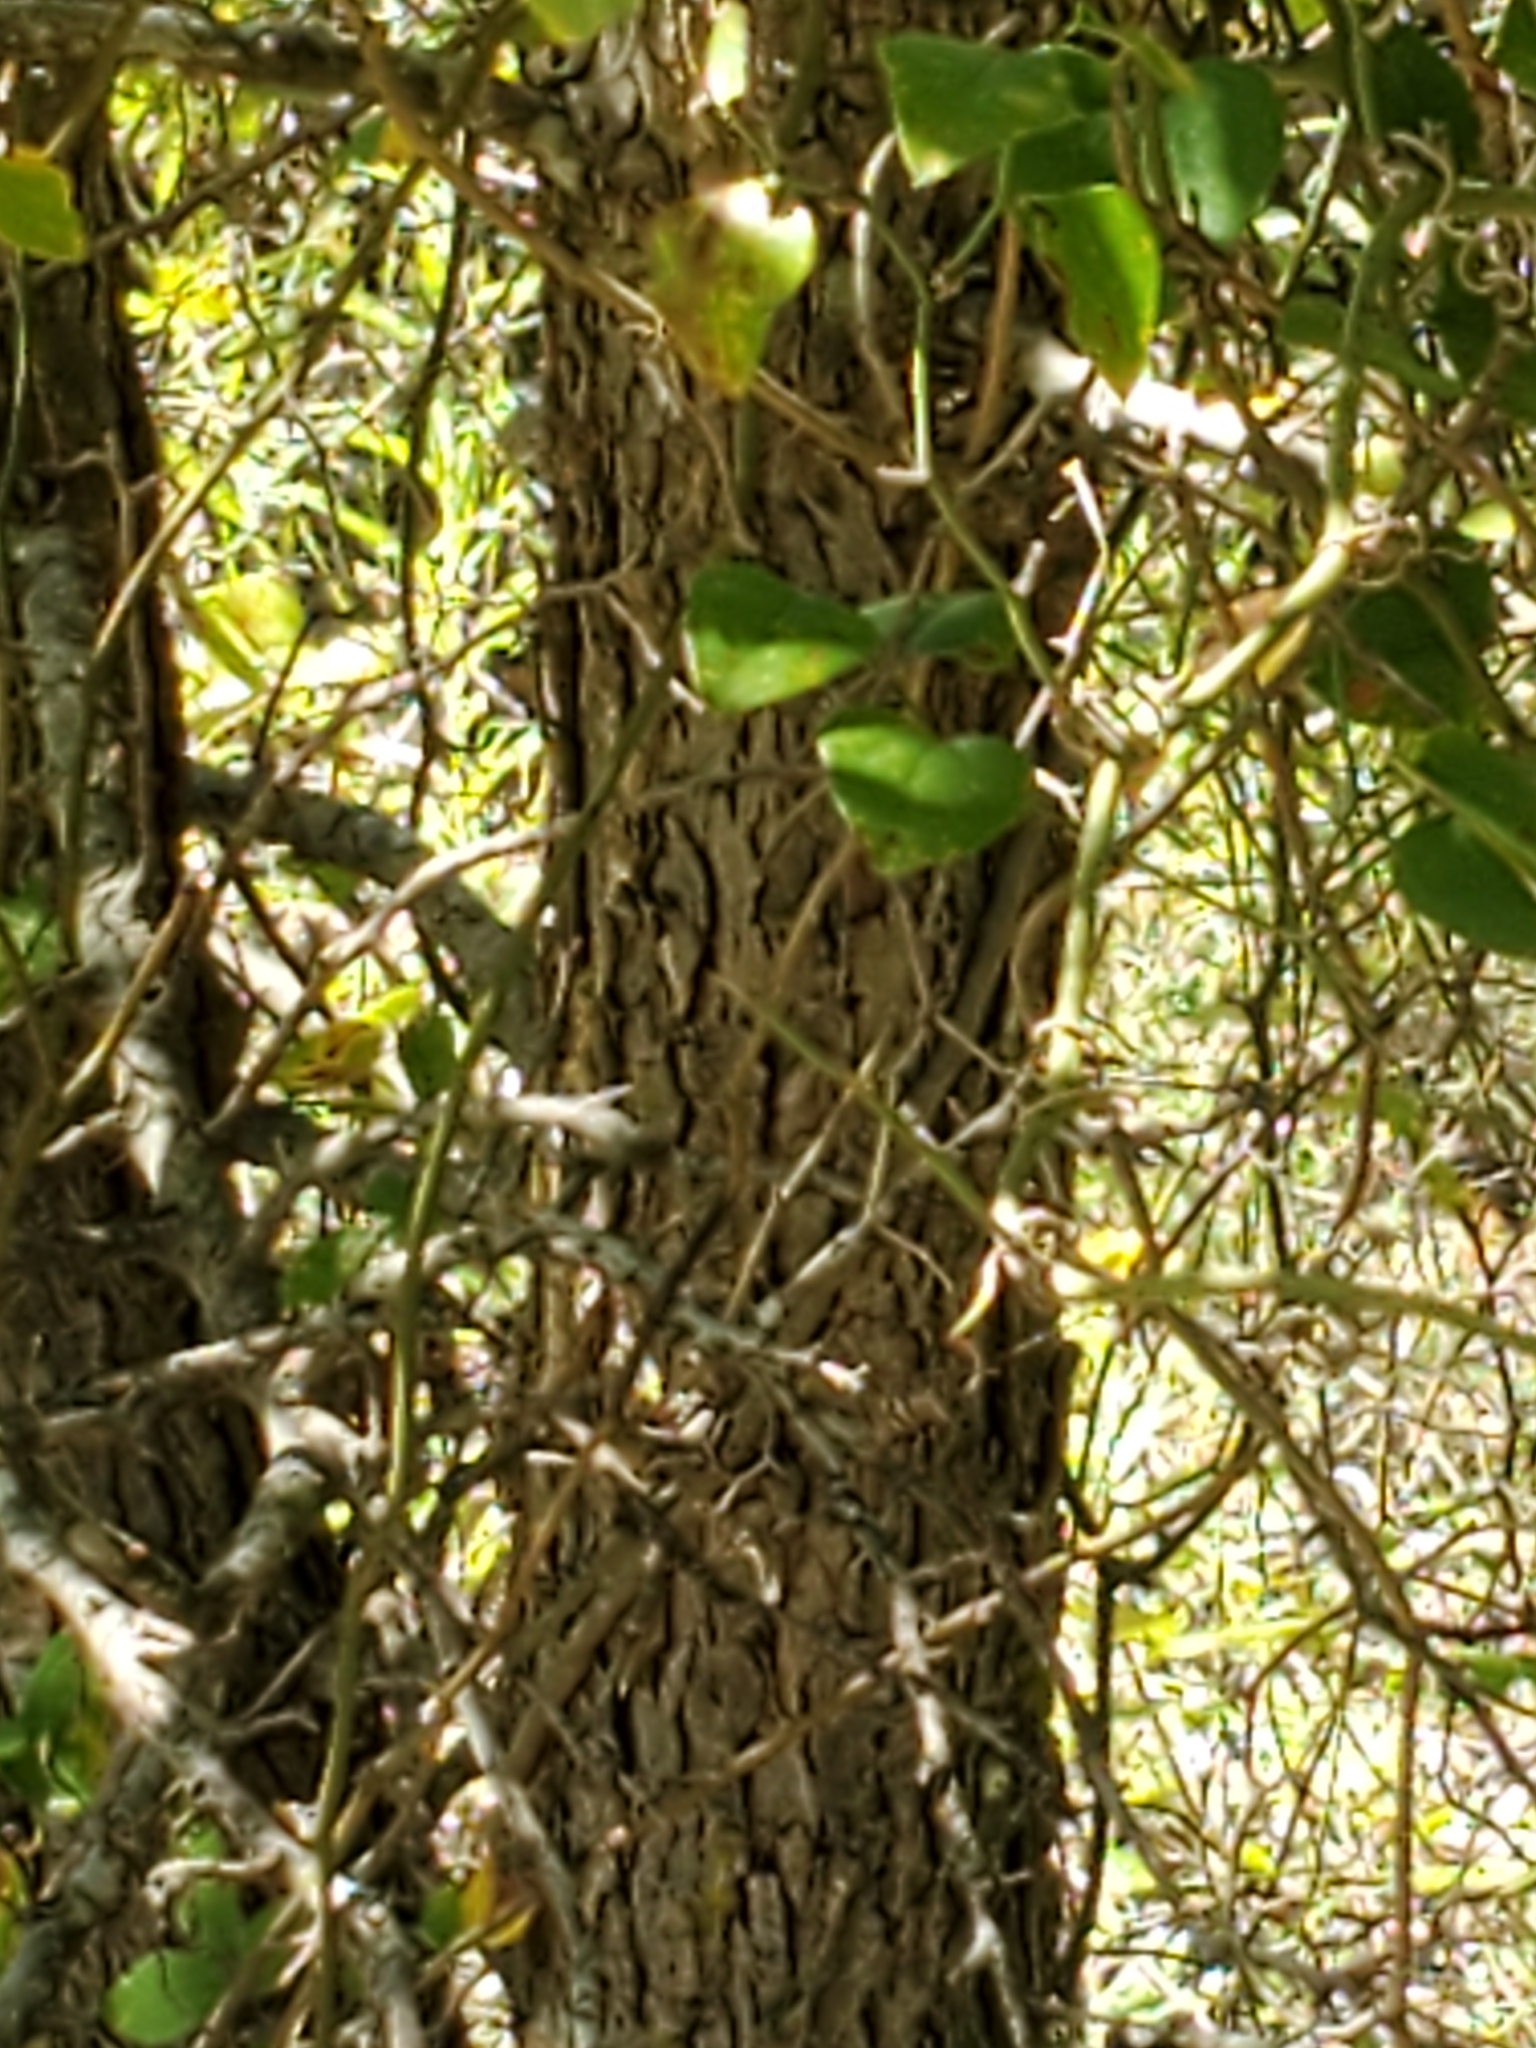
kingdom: Plantae
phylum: Tracheophyta
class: Magnoliopsida
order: Rosales
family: Ulmaceae
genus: Ulmus
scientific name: Ulmus crassifolia
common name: Basket elm
